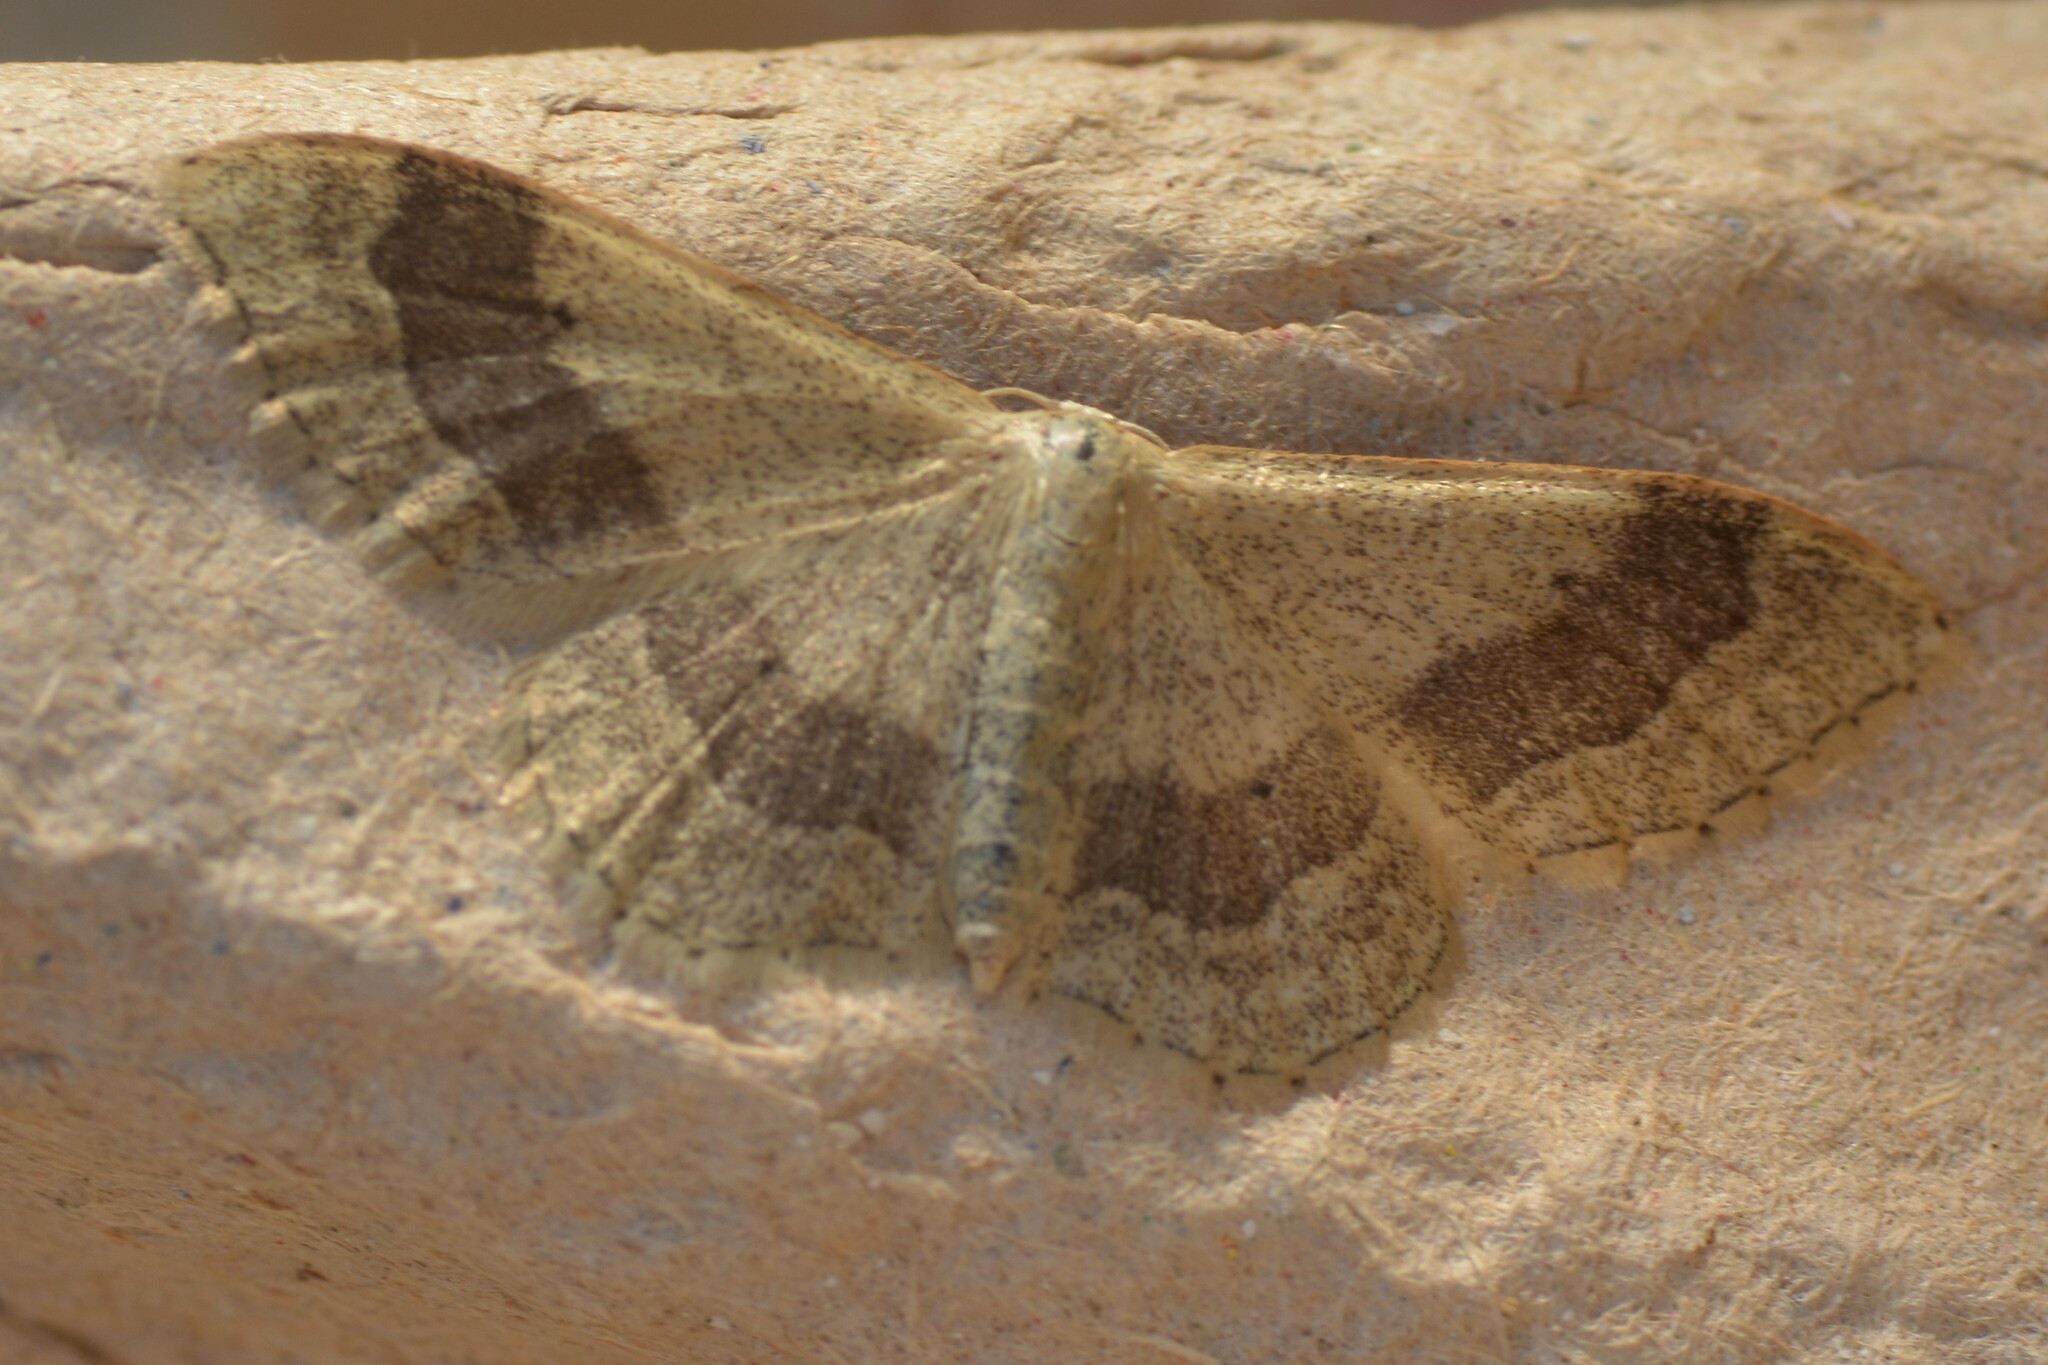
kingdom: Animalia
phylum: Arthropoda
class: Insecta
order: Lepidoptera
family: Geometridae
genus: Idaea
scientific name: Idaea aversata
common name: Riband wave
